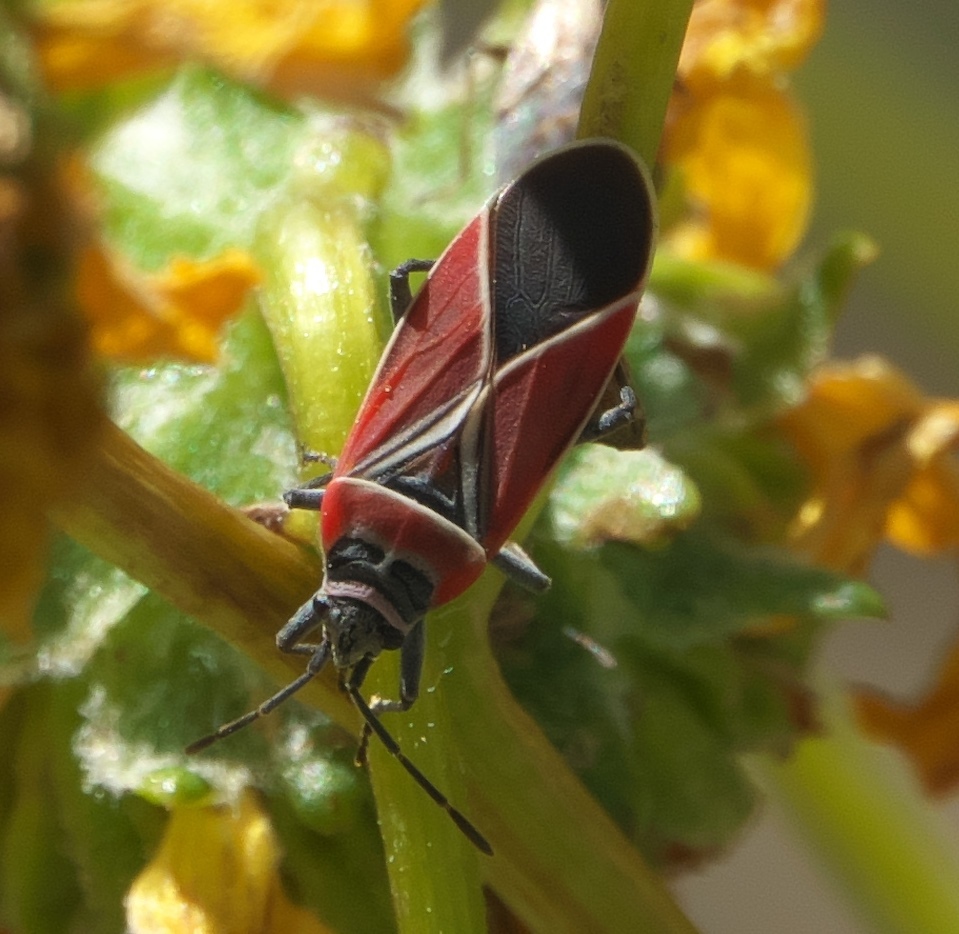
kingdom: Animalia
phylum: Arthropoda
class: Insecta
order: Hemiptera
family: Lygaeidae
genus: Neacoryphus
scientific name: Neacoryphus bicrucis
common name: Lygaeid bug
